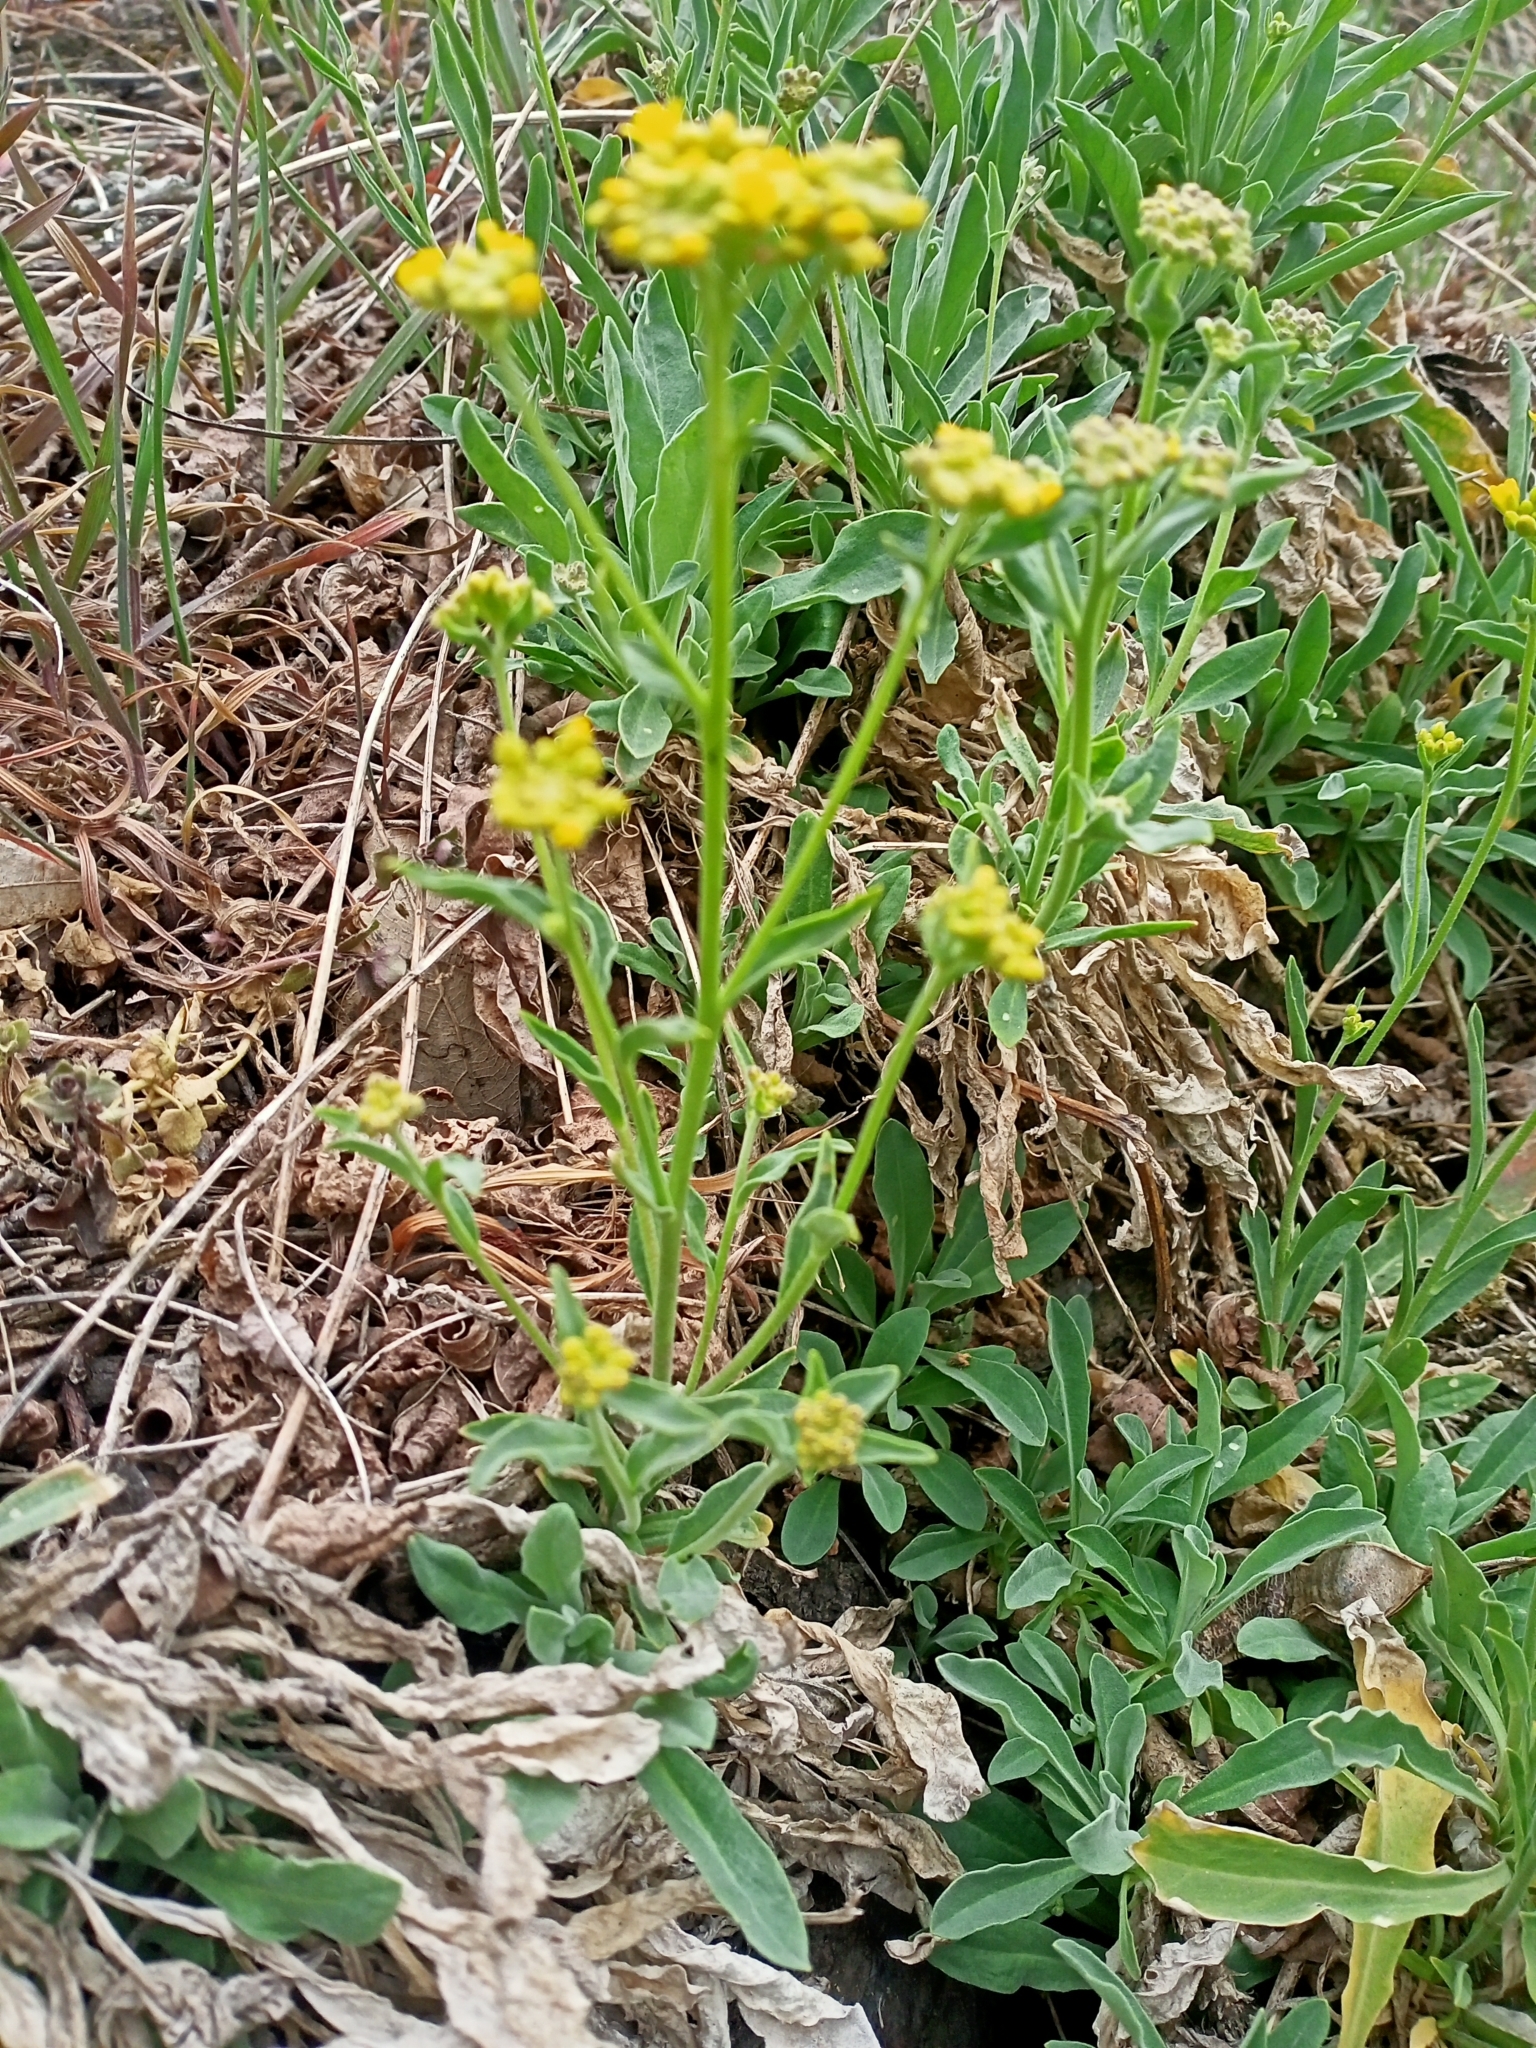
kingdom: Plantae
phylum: Tracheophyta
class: Magnoliopsida
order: Brassicales
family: Brassicaceae
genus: Aurinia
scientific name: Aurinia saxatilis
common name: Golden-tuft alyssum
